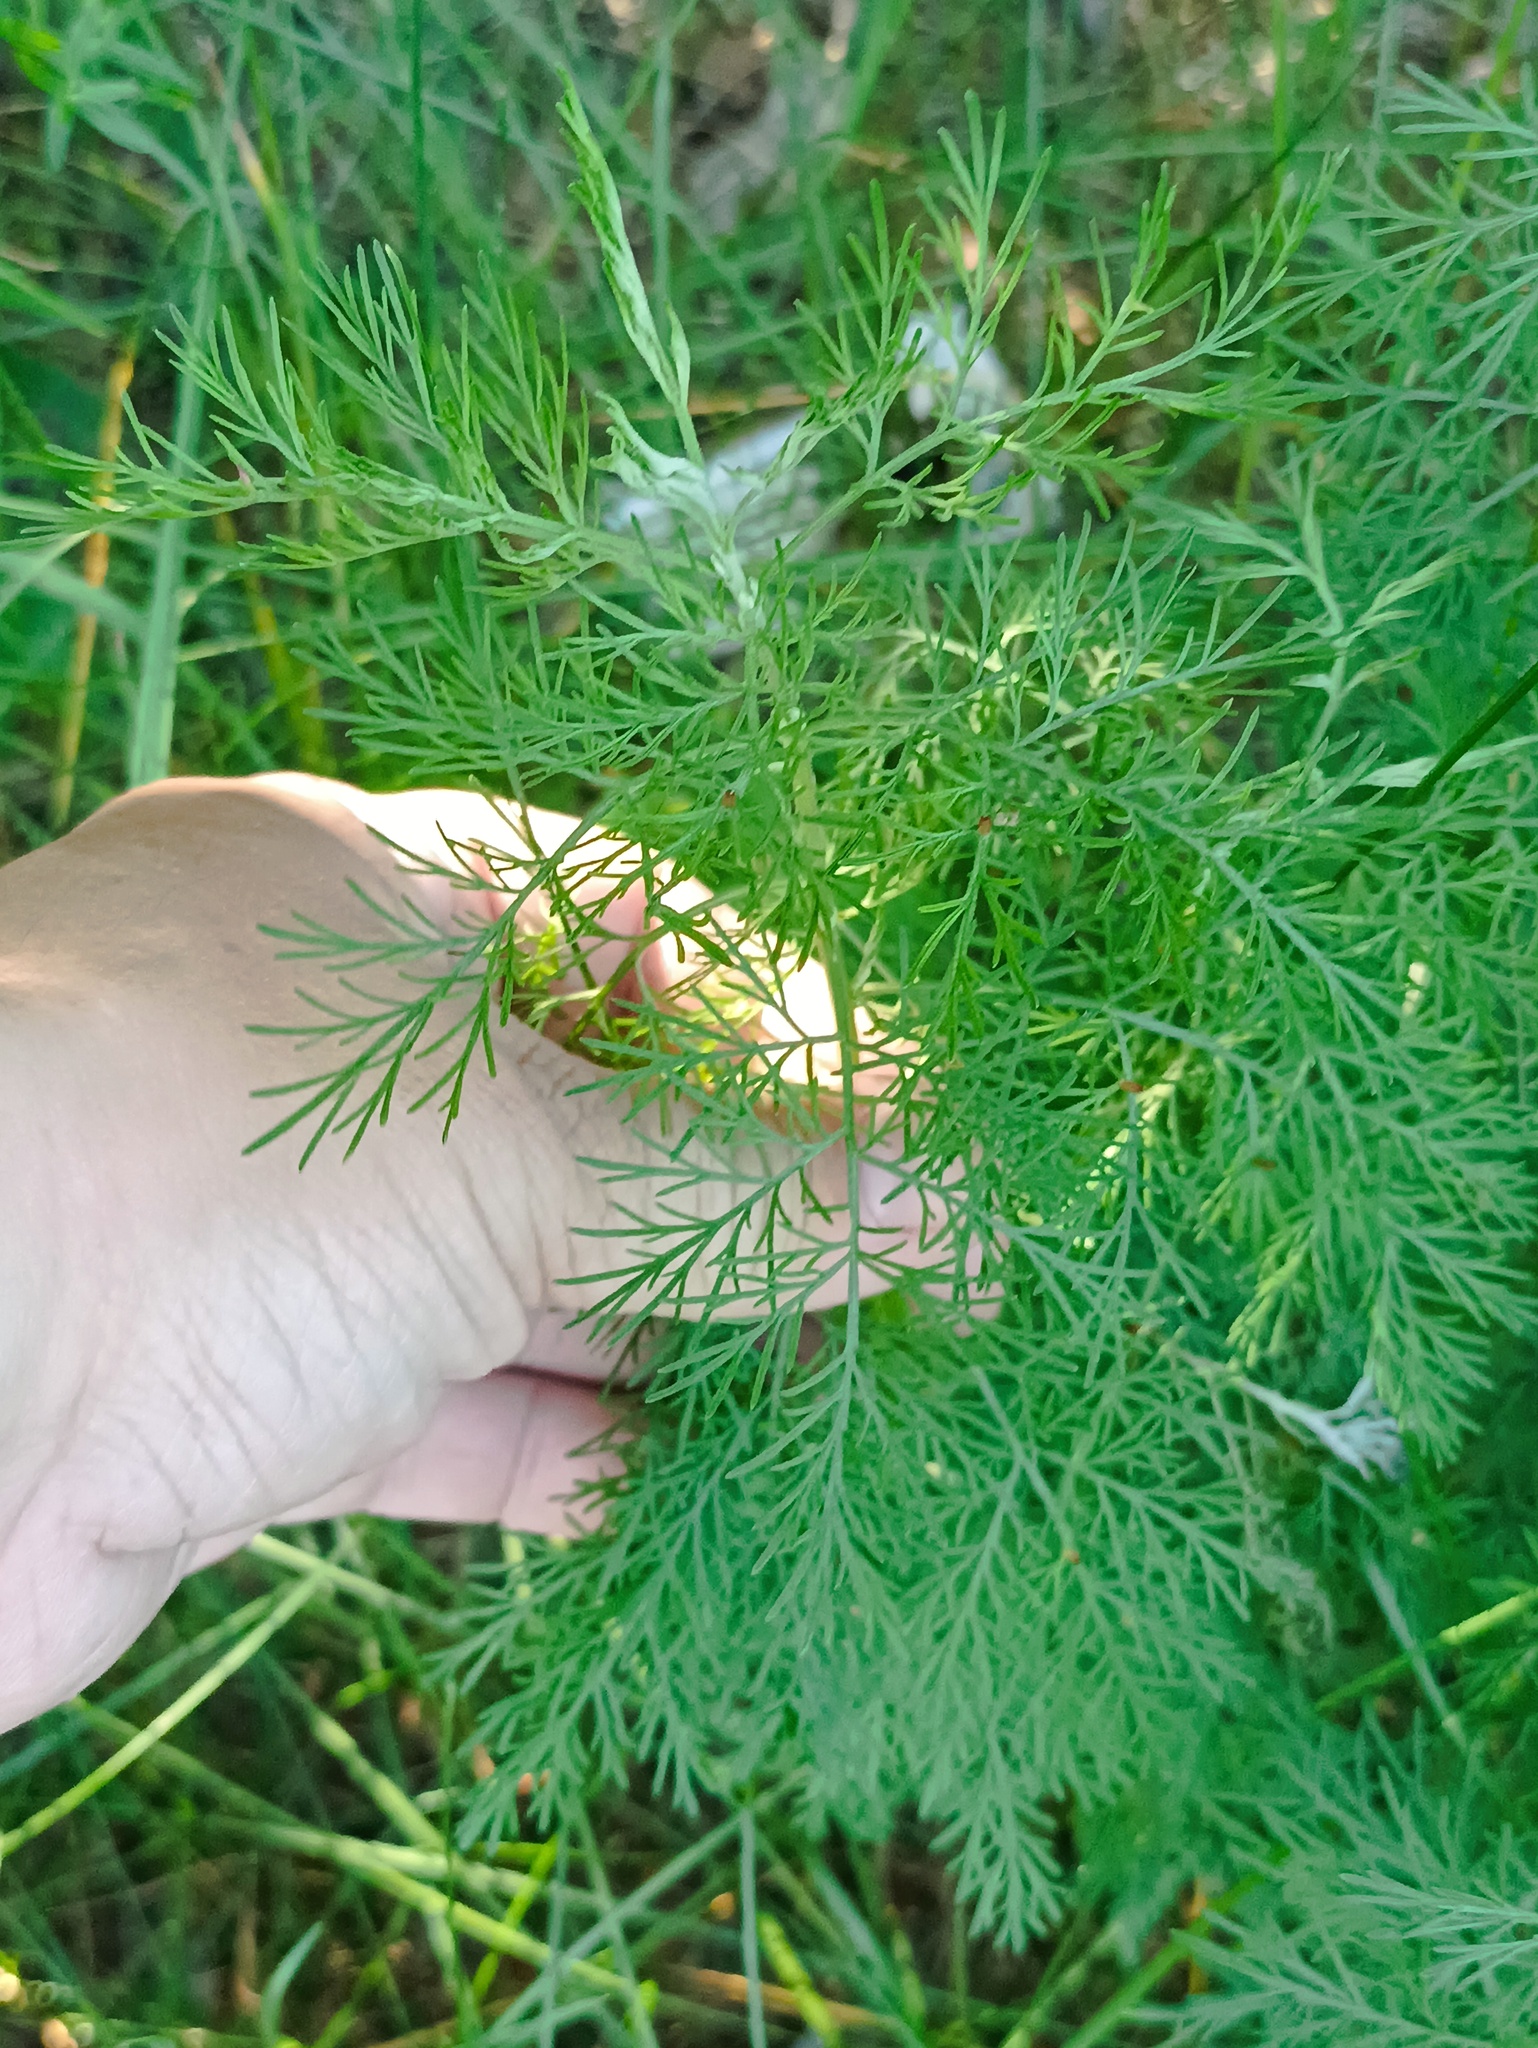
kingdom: Plantae
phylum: Tracheophyta
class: Magnoliopsida
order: Asterales
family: Asteraceae
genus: Artemisia
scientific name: Artemisia abrotanum
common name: Southernwood
